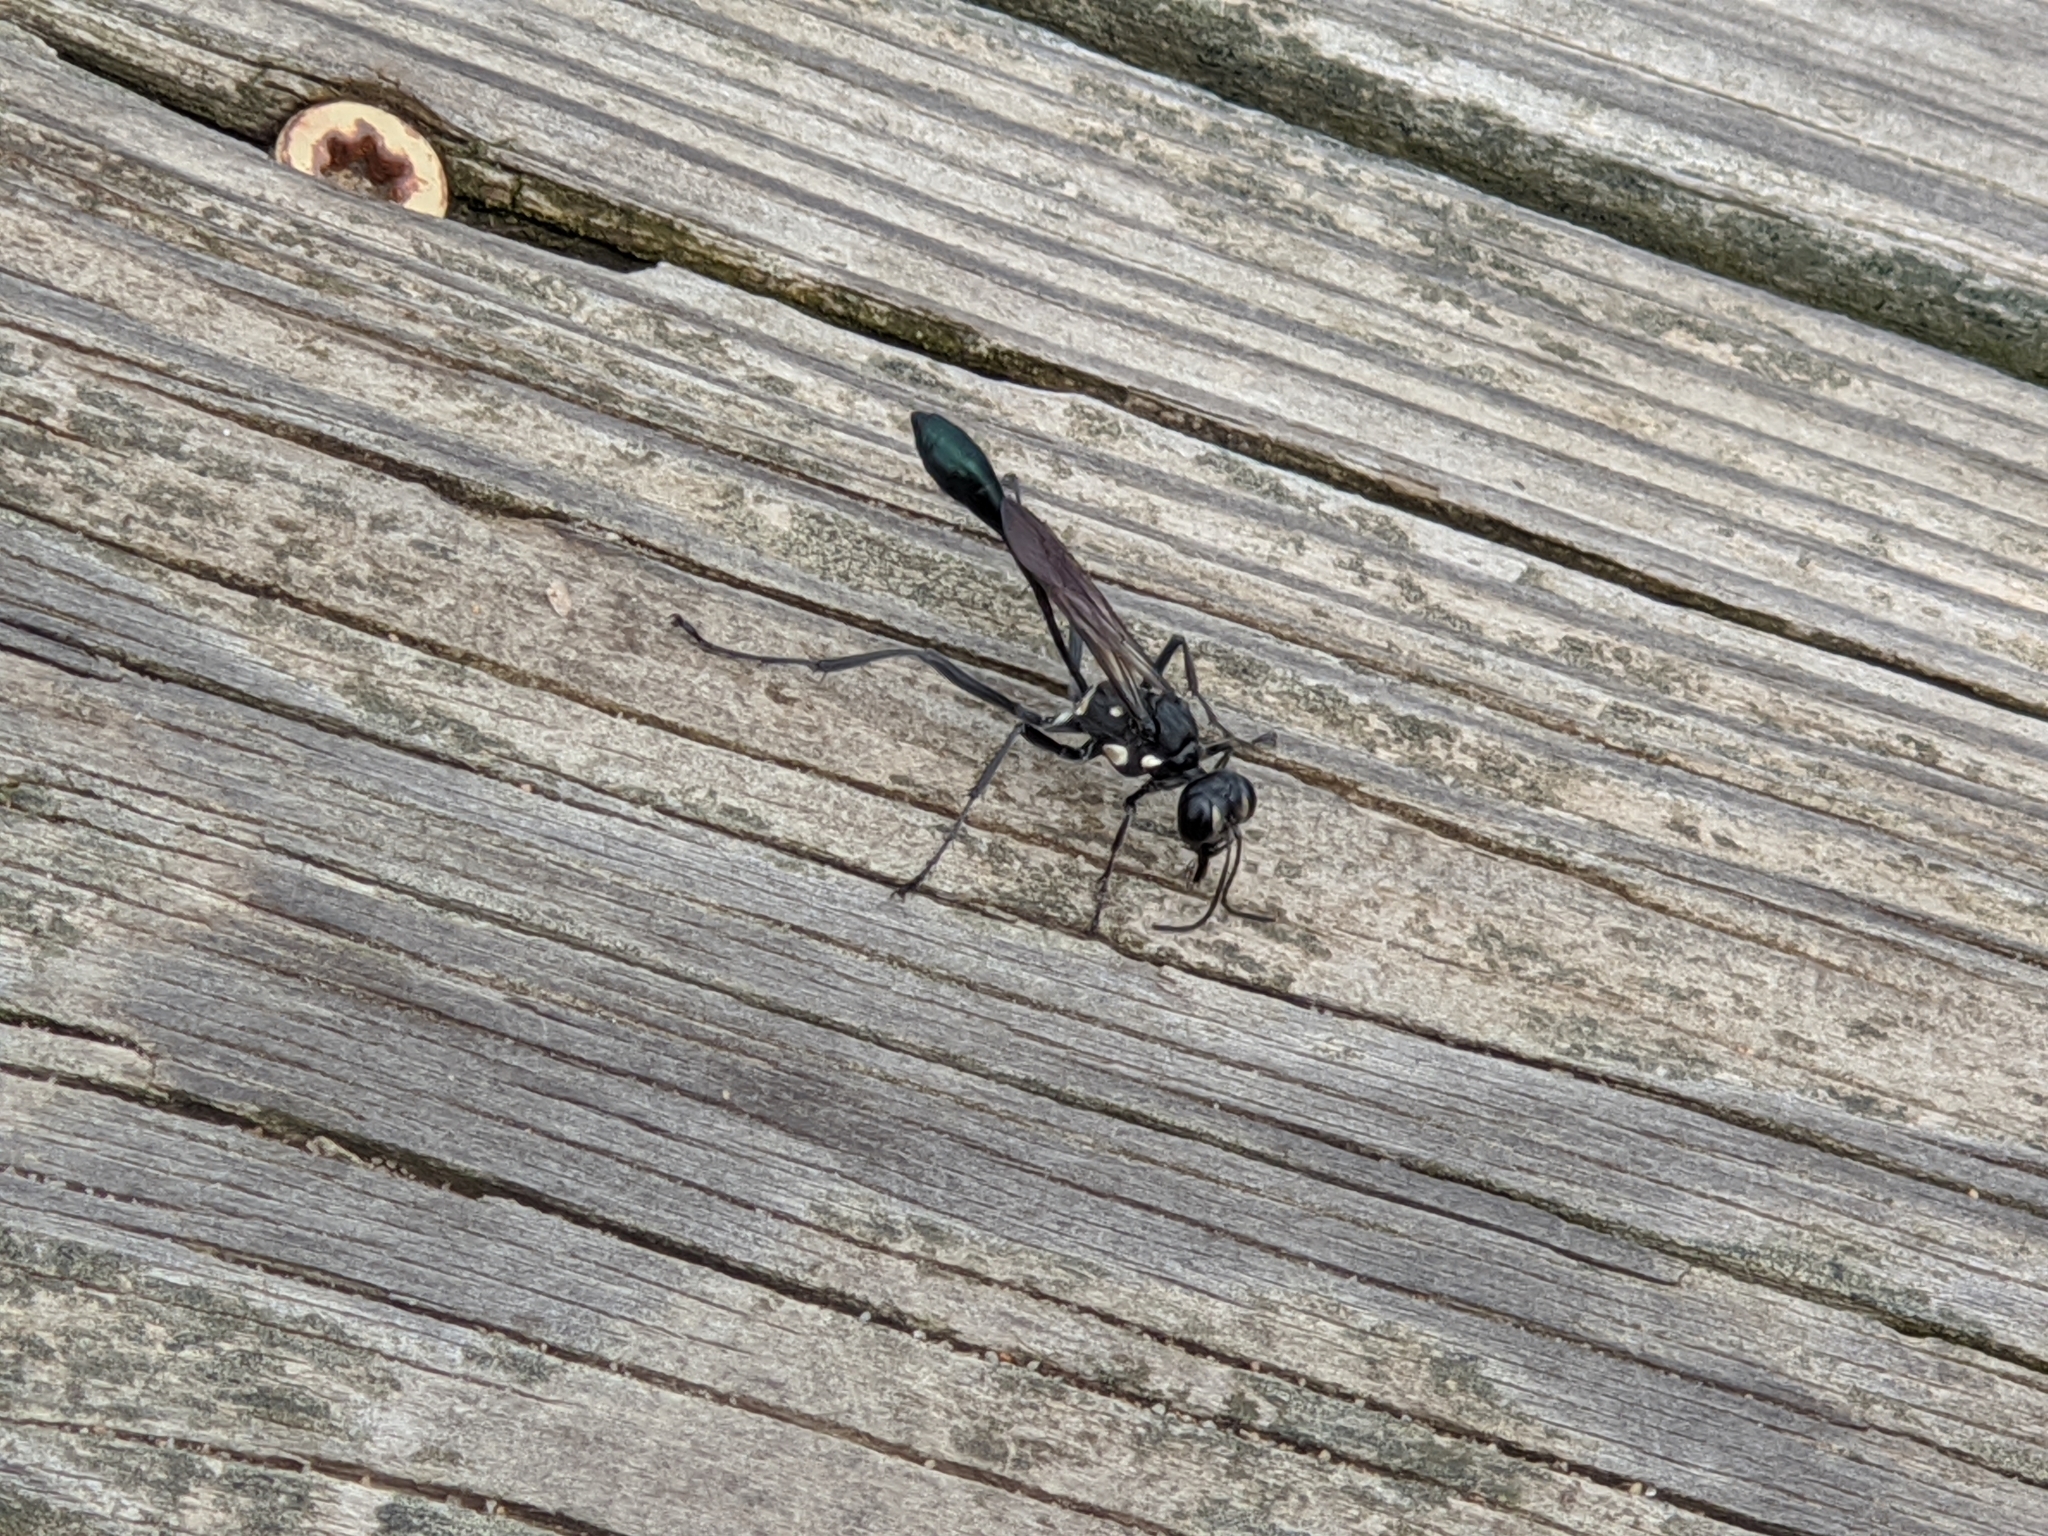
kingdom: Animalia
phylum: Arthropoda
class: Insecta
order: Hymenoptera
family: Sphecidae
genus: Eremnophila
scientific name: Eremnophila aureonotata
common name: Gold-marked thread-waisted wasp
